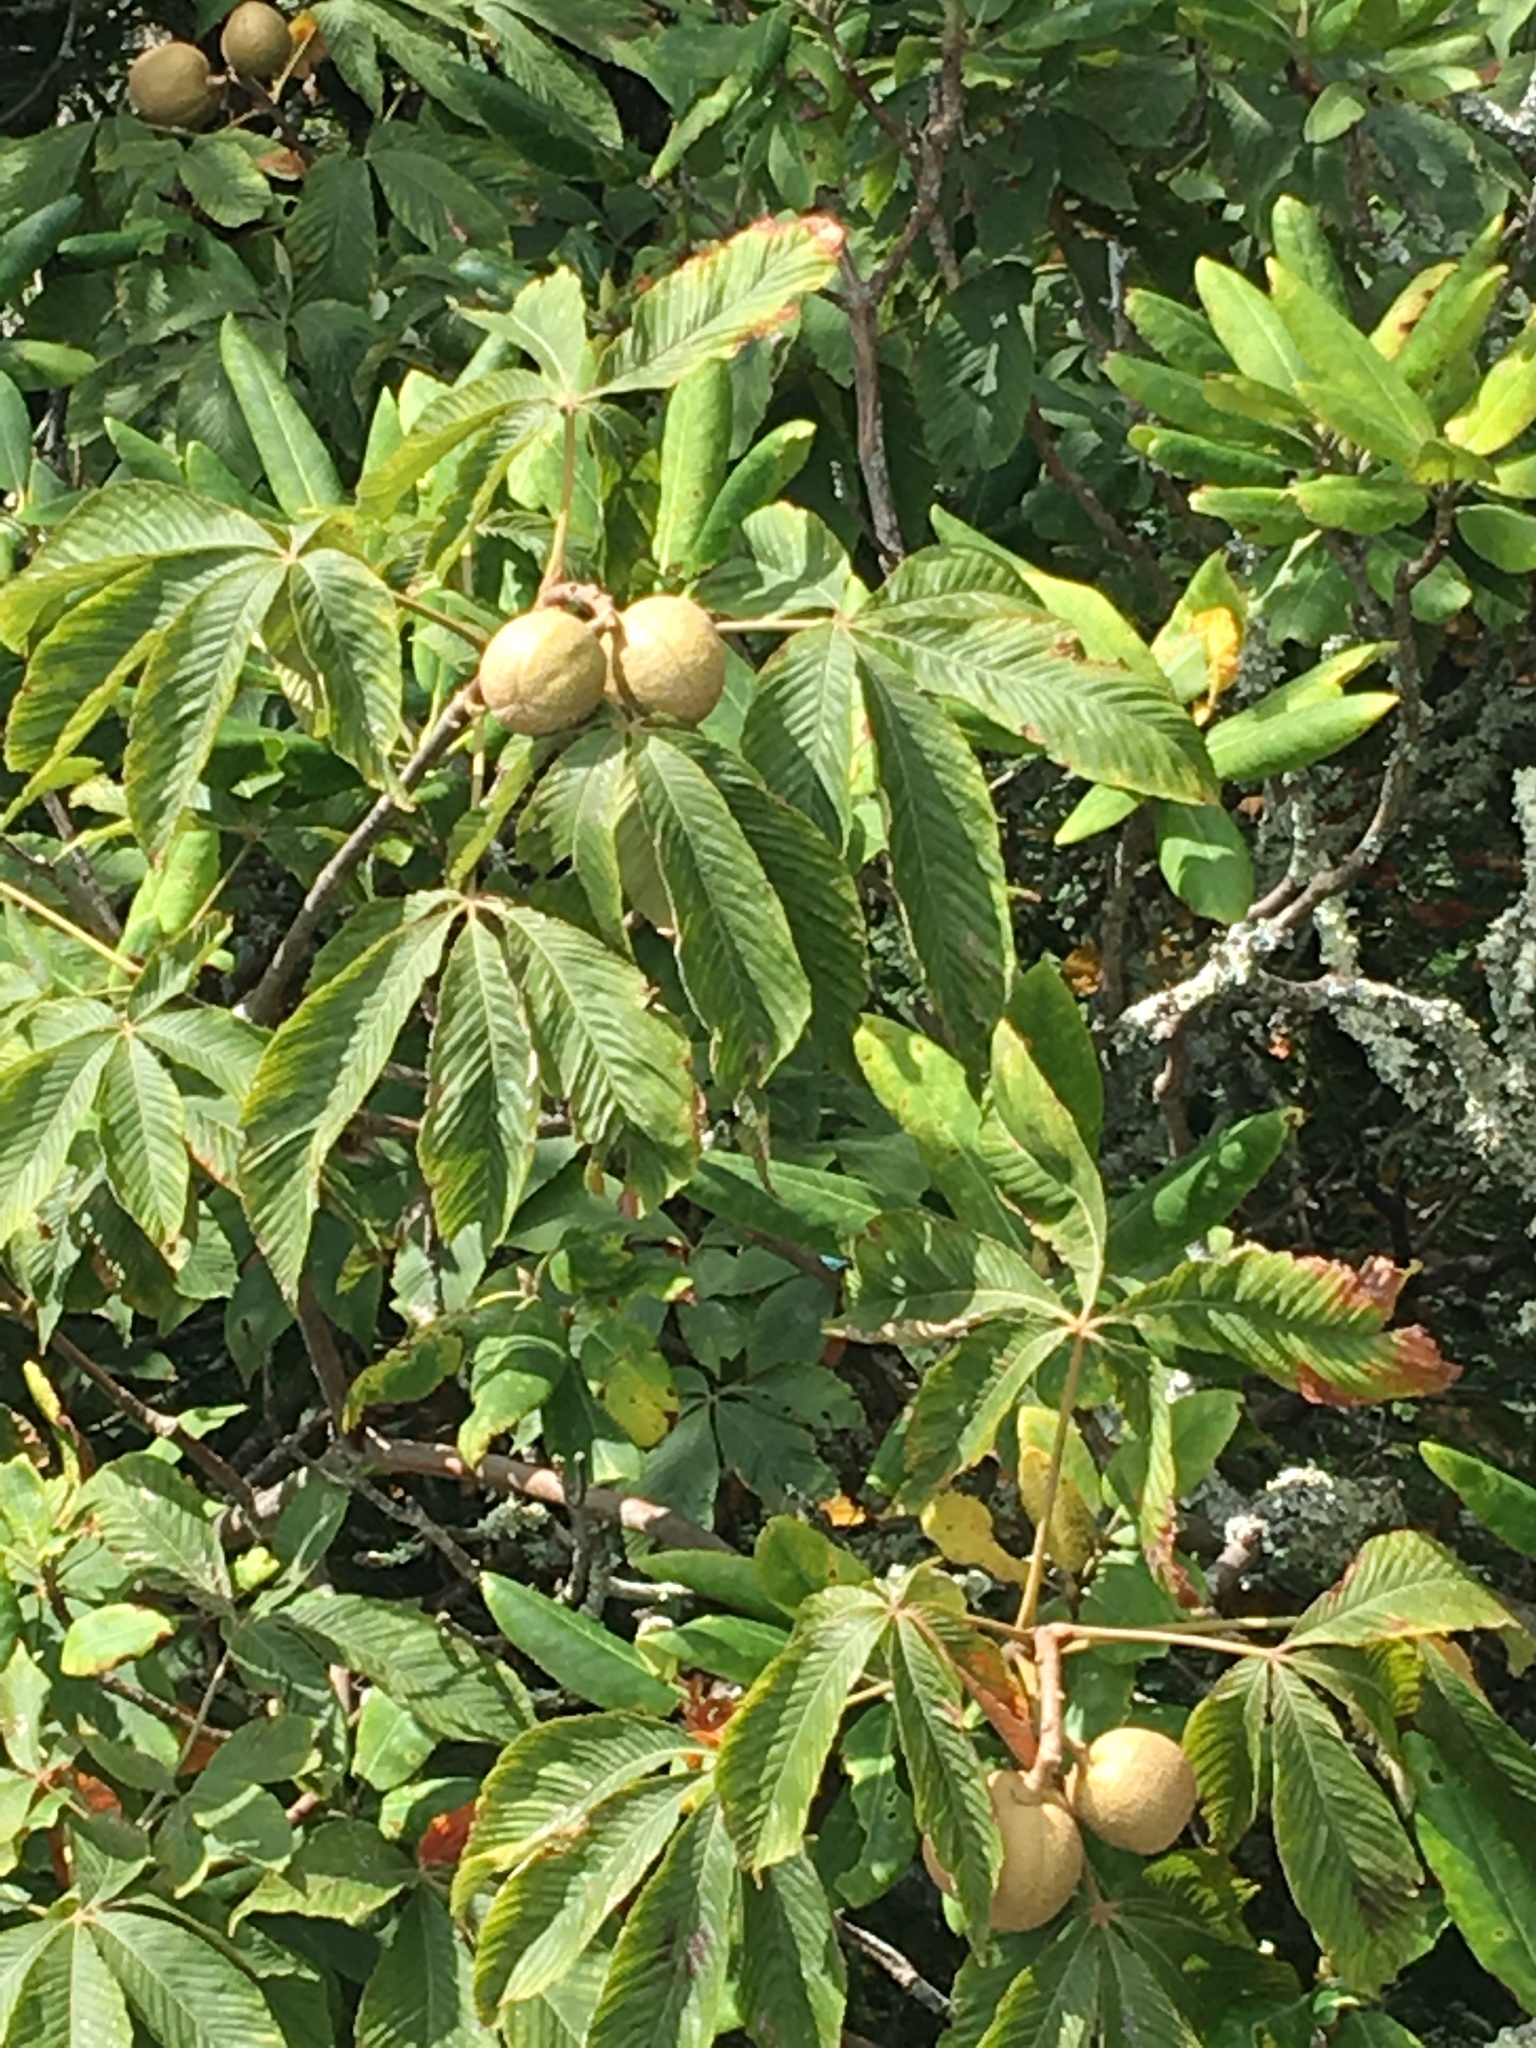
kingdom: Plantae
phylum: Tracheophyta
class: Magnoliopsida
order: Sapindales
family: Sapindaceae
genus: Aesculus
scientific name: Aesculus flava
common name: Yellow buckeye
